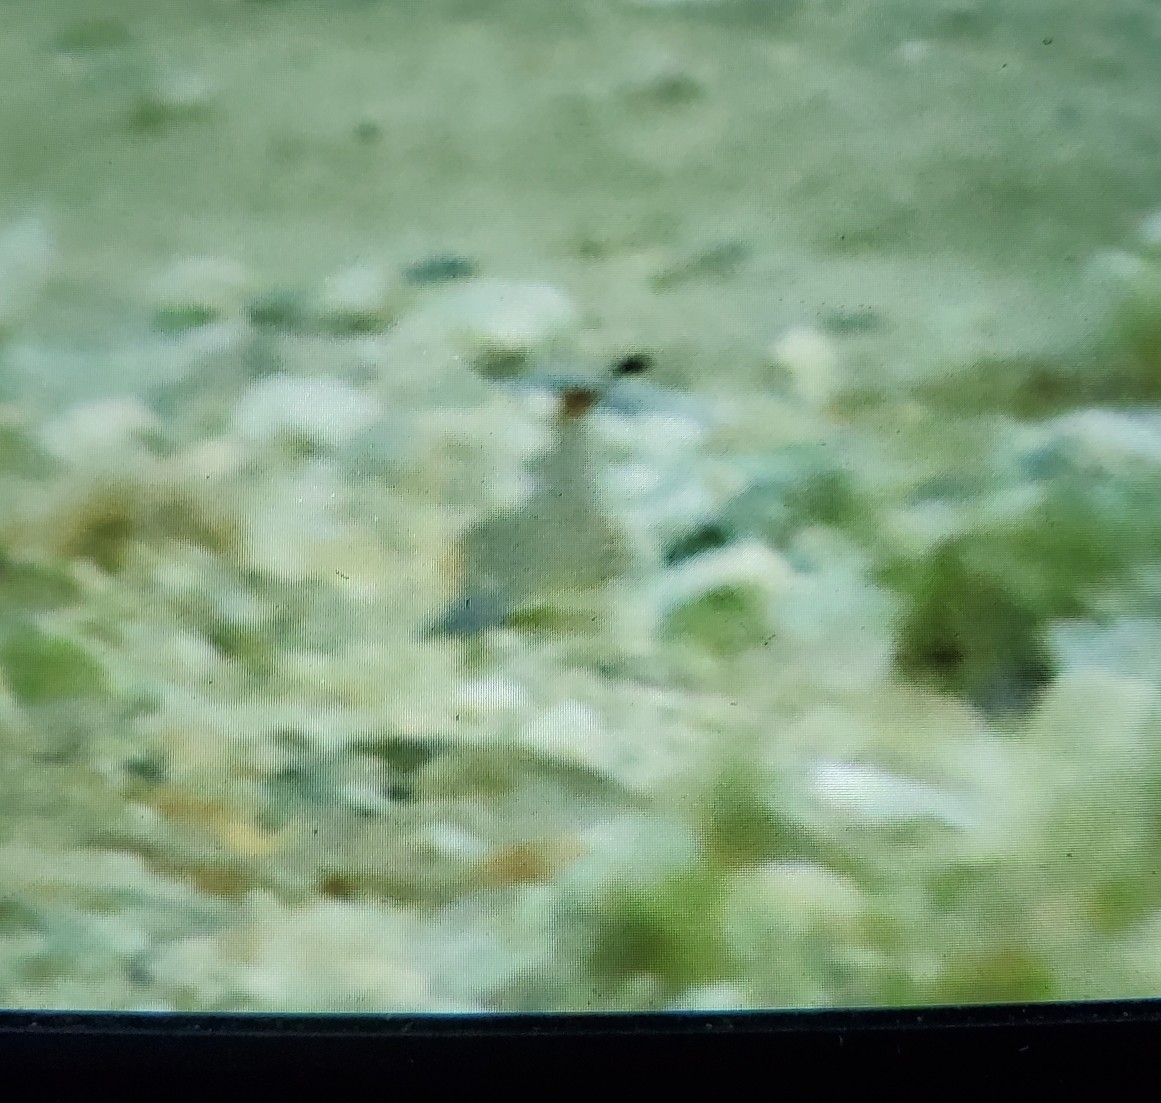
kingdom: Animalia
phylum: Chordata
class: Aves
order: Galliformes
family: Odontophoridae
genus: Callipepla
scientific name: Callipepla gambelii
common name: Gambel's quail
